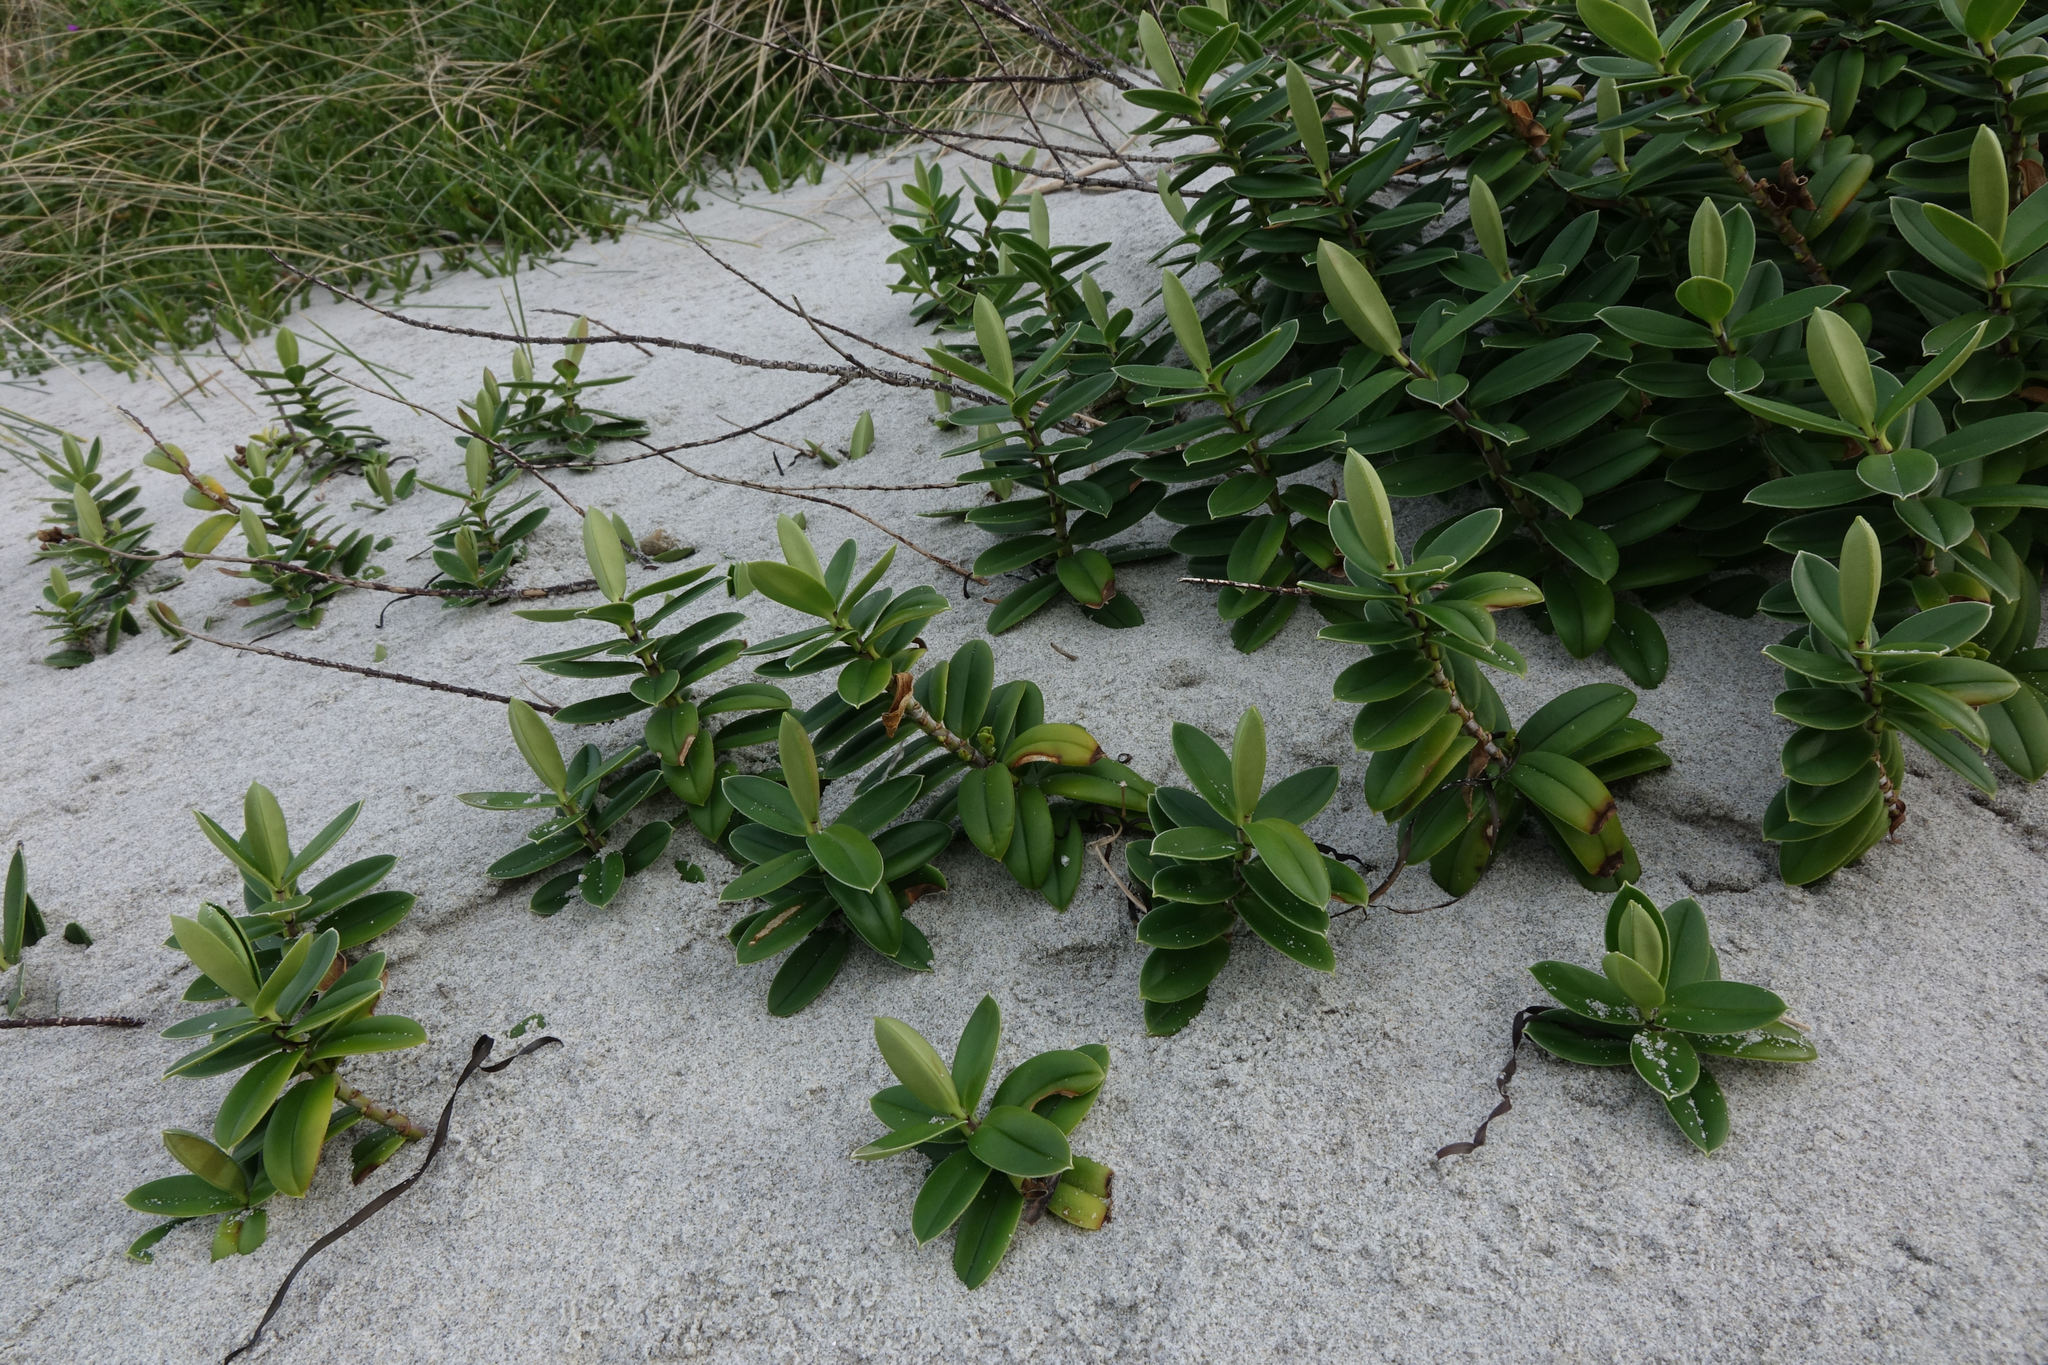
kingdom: Plantae
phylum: Tracheophyta
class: Magnoliopsida
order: Lamiales
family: Plantaginaceae
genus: Veronica
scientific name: Veronica elliptica
